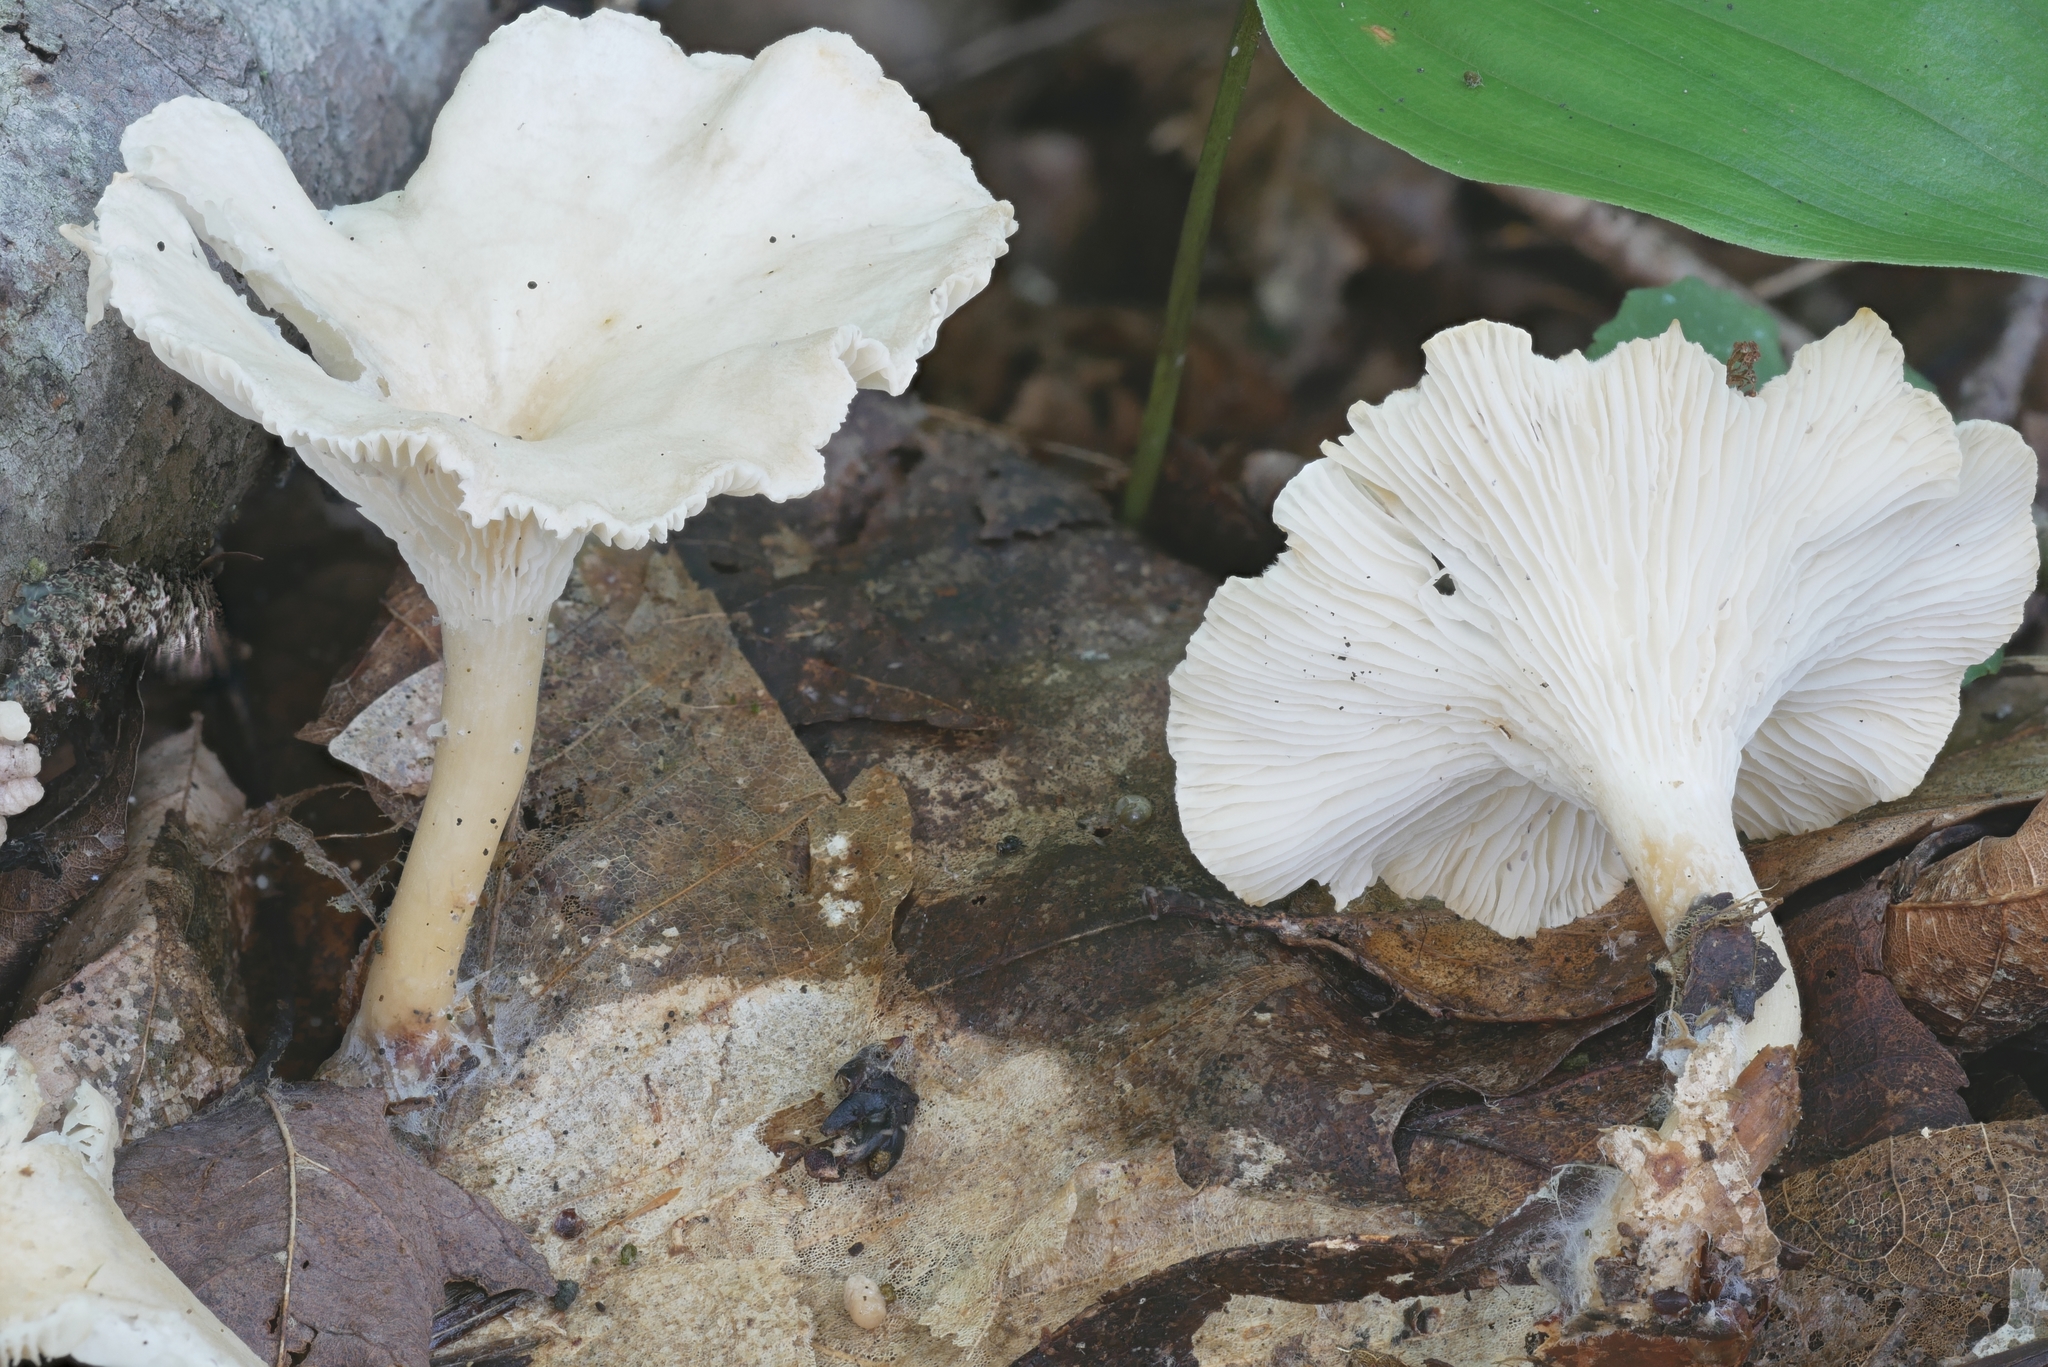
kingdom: Fungi
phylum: Basidiomycota
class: Agaricomycetes
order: Agaricales
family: Tricholomataceae
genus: Infundibulicybe
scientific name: Infundibulicybe gibba
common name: Common funnel
